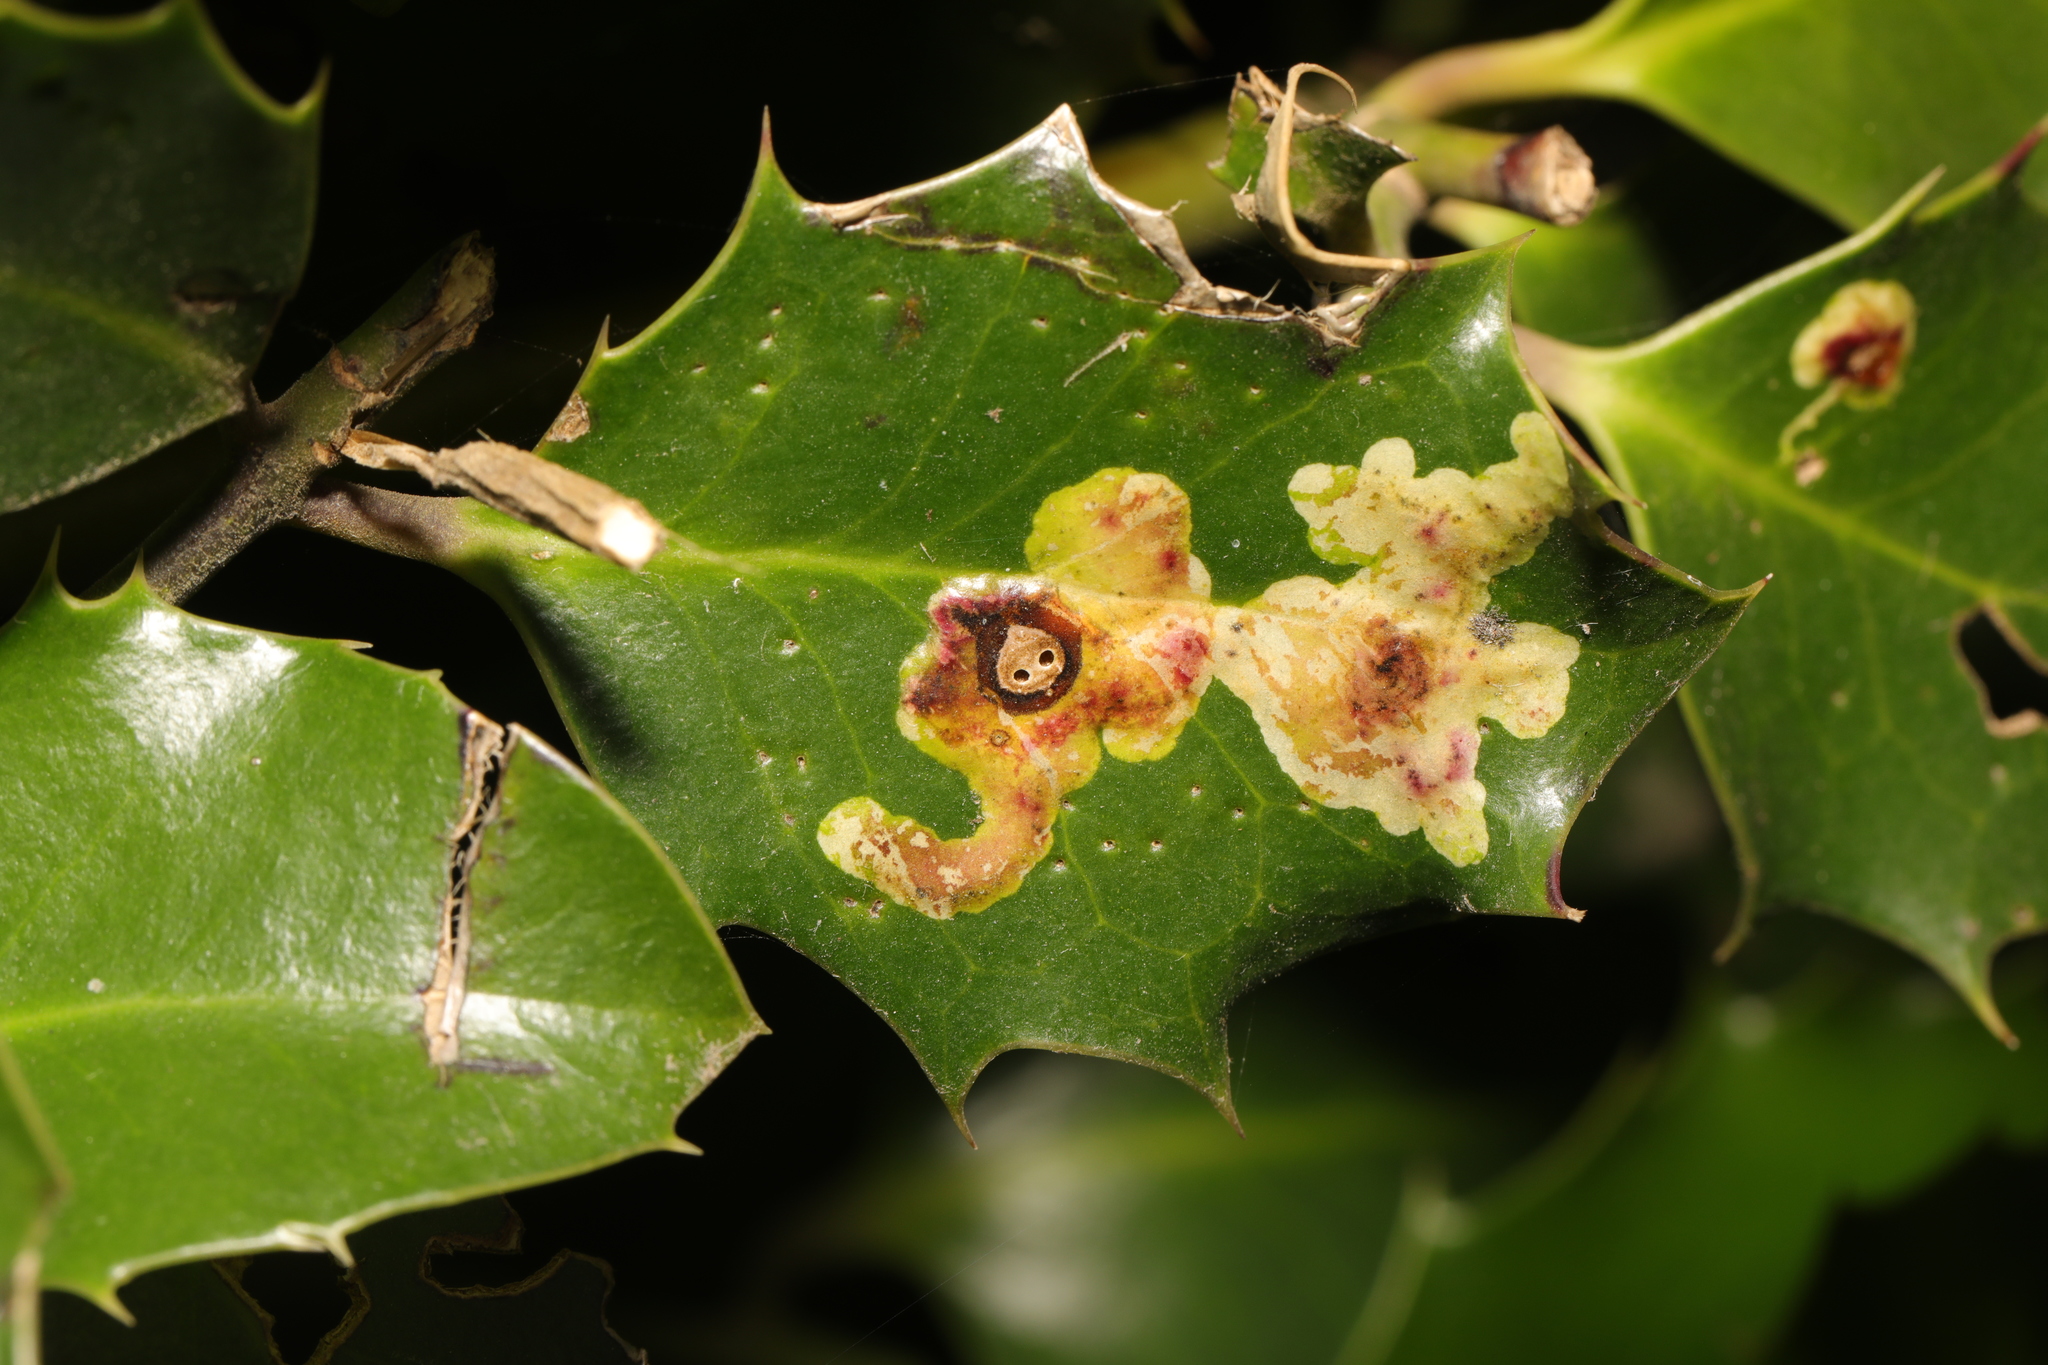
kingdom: Animalia
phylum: Arthropoda
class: Insecta
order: Diptera
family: Agromyzidae
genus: Phytomyza
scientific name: Phytomyza ilicis
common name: Holly leafminer
